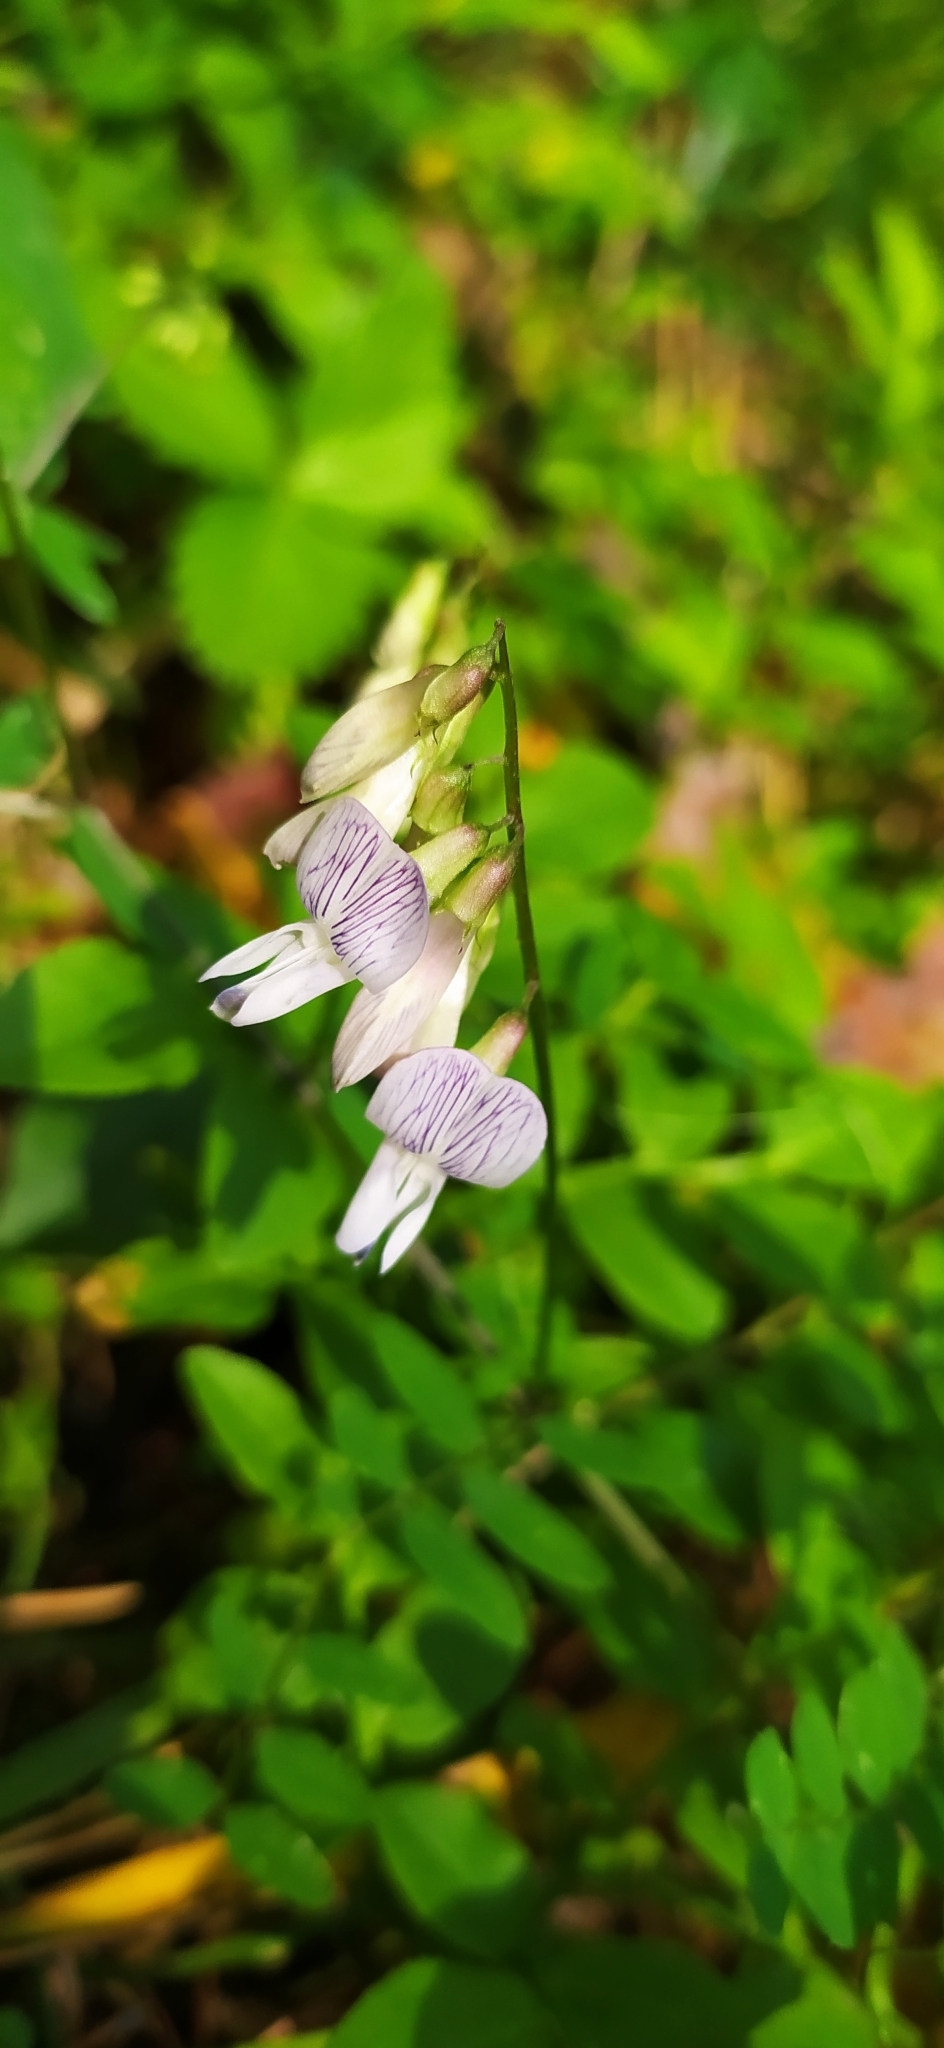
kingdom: Plantae
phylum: Tracheophyta
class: Magnoliopsida
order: Fabales
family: Fabaceae
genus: Vicia
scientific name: Vicia sylvatica
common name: Wood vetch
